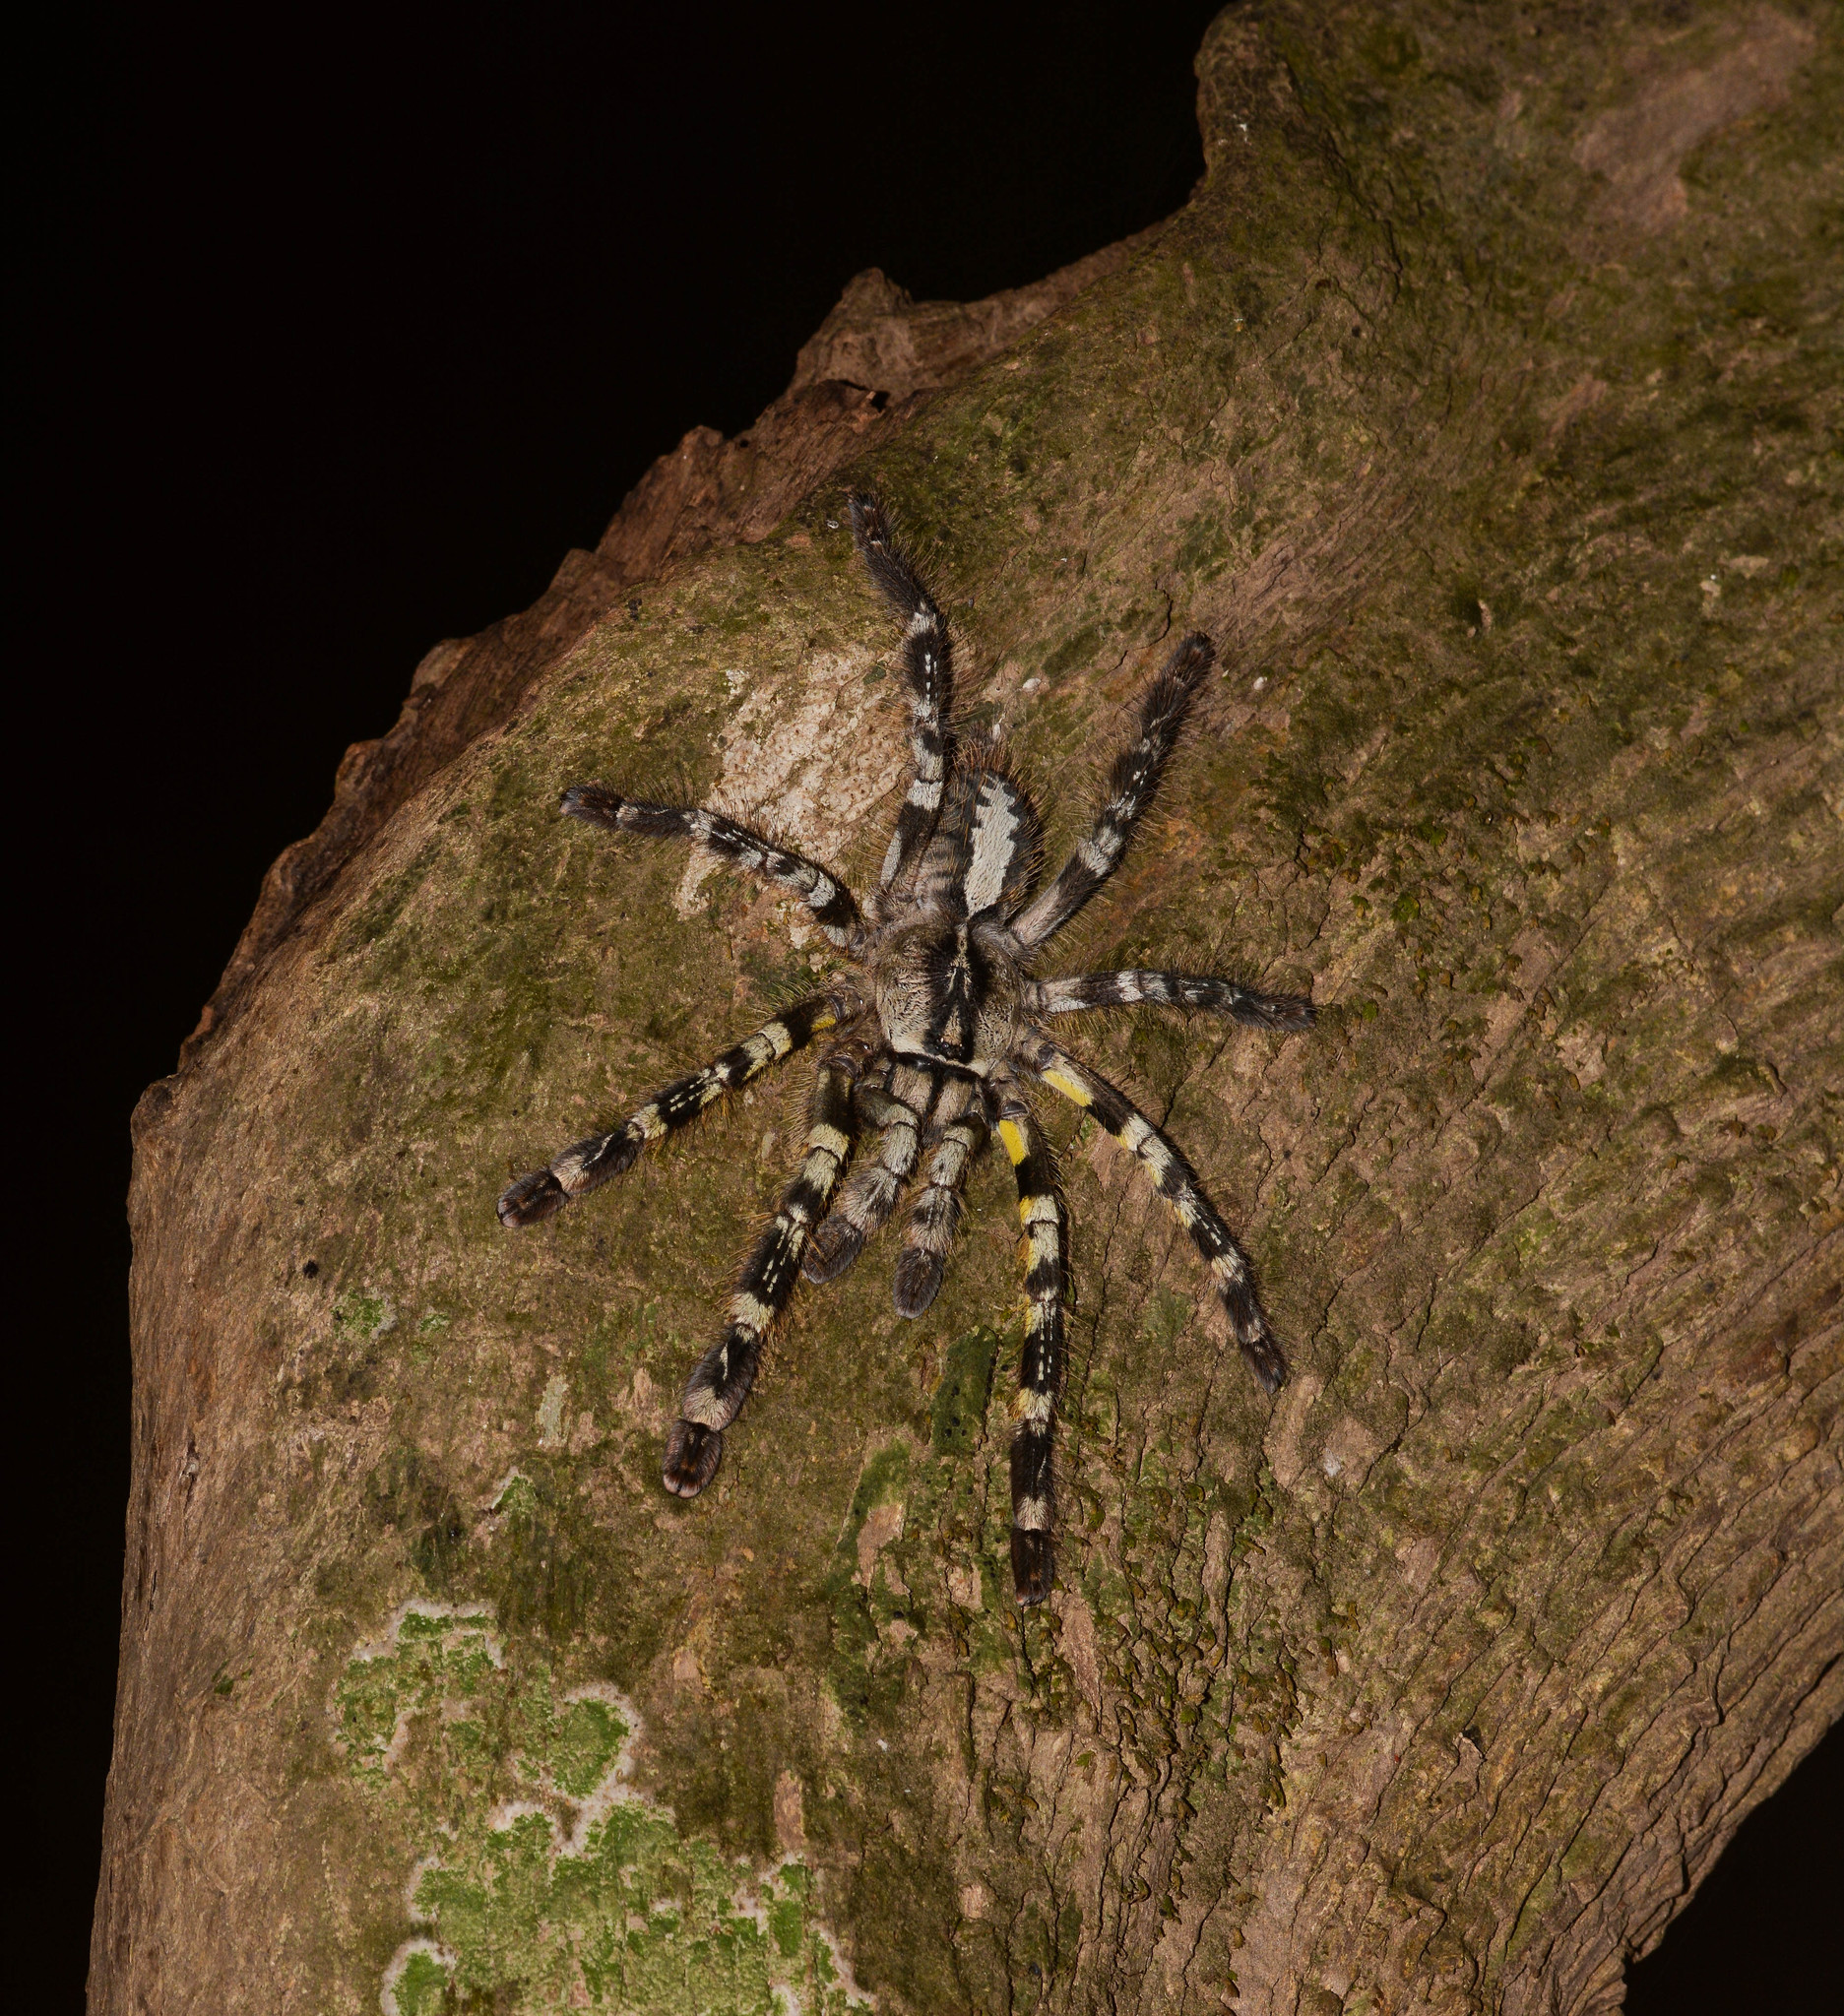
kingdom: Animalia
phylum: Arthropoda
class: Arachnida
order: Araneae
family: Theraphosidae
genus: Poecilotheria
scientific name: Poecilotheria regalis
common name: Indian ornamental
